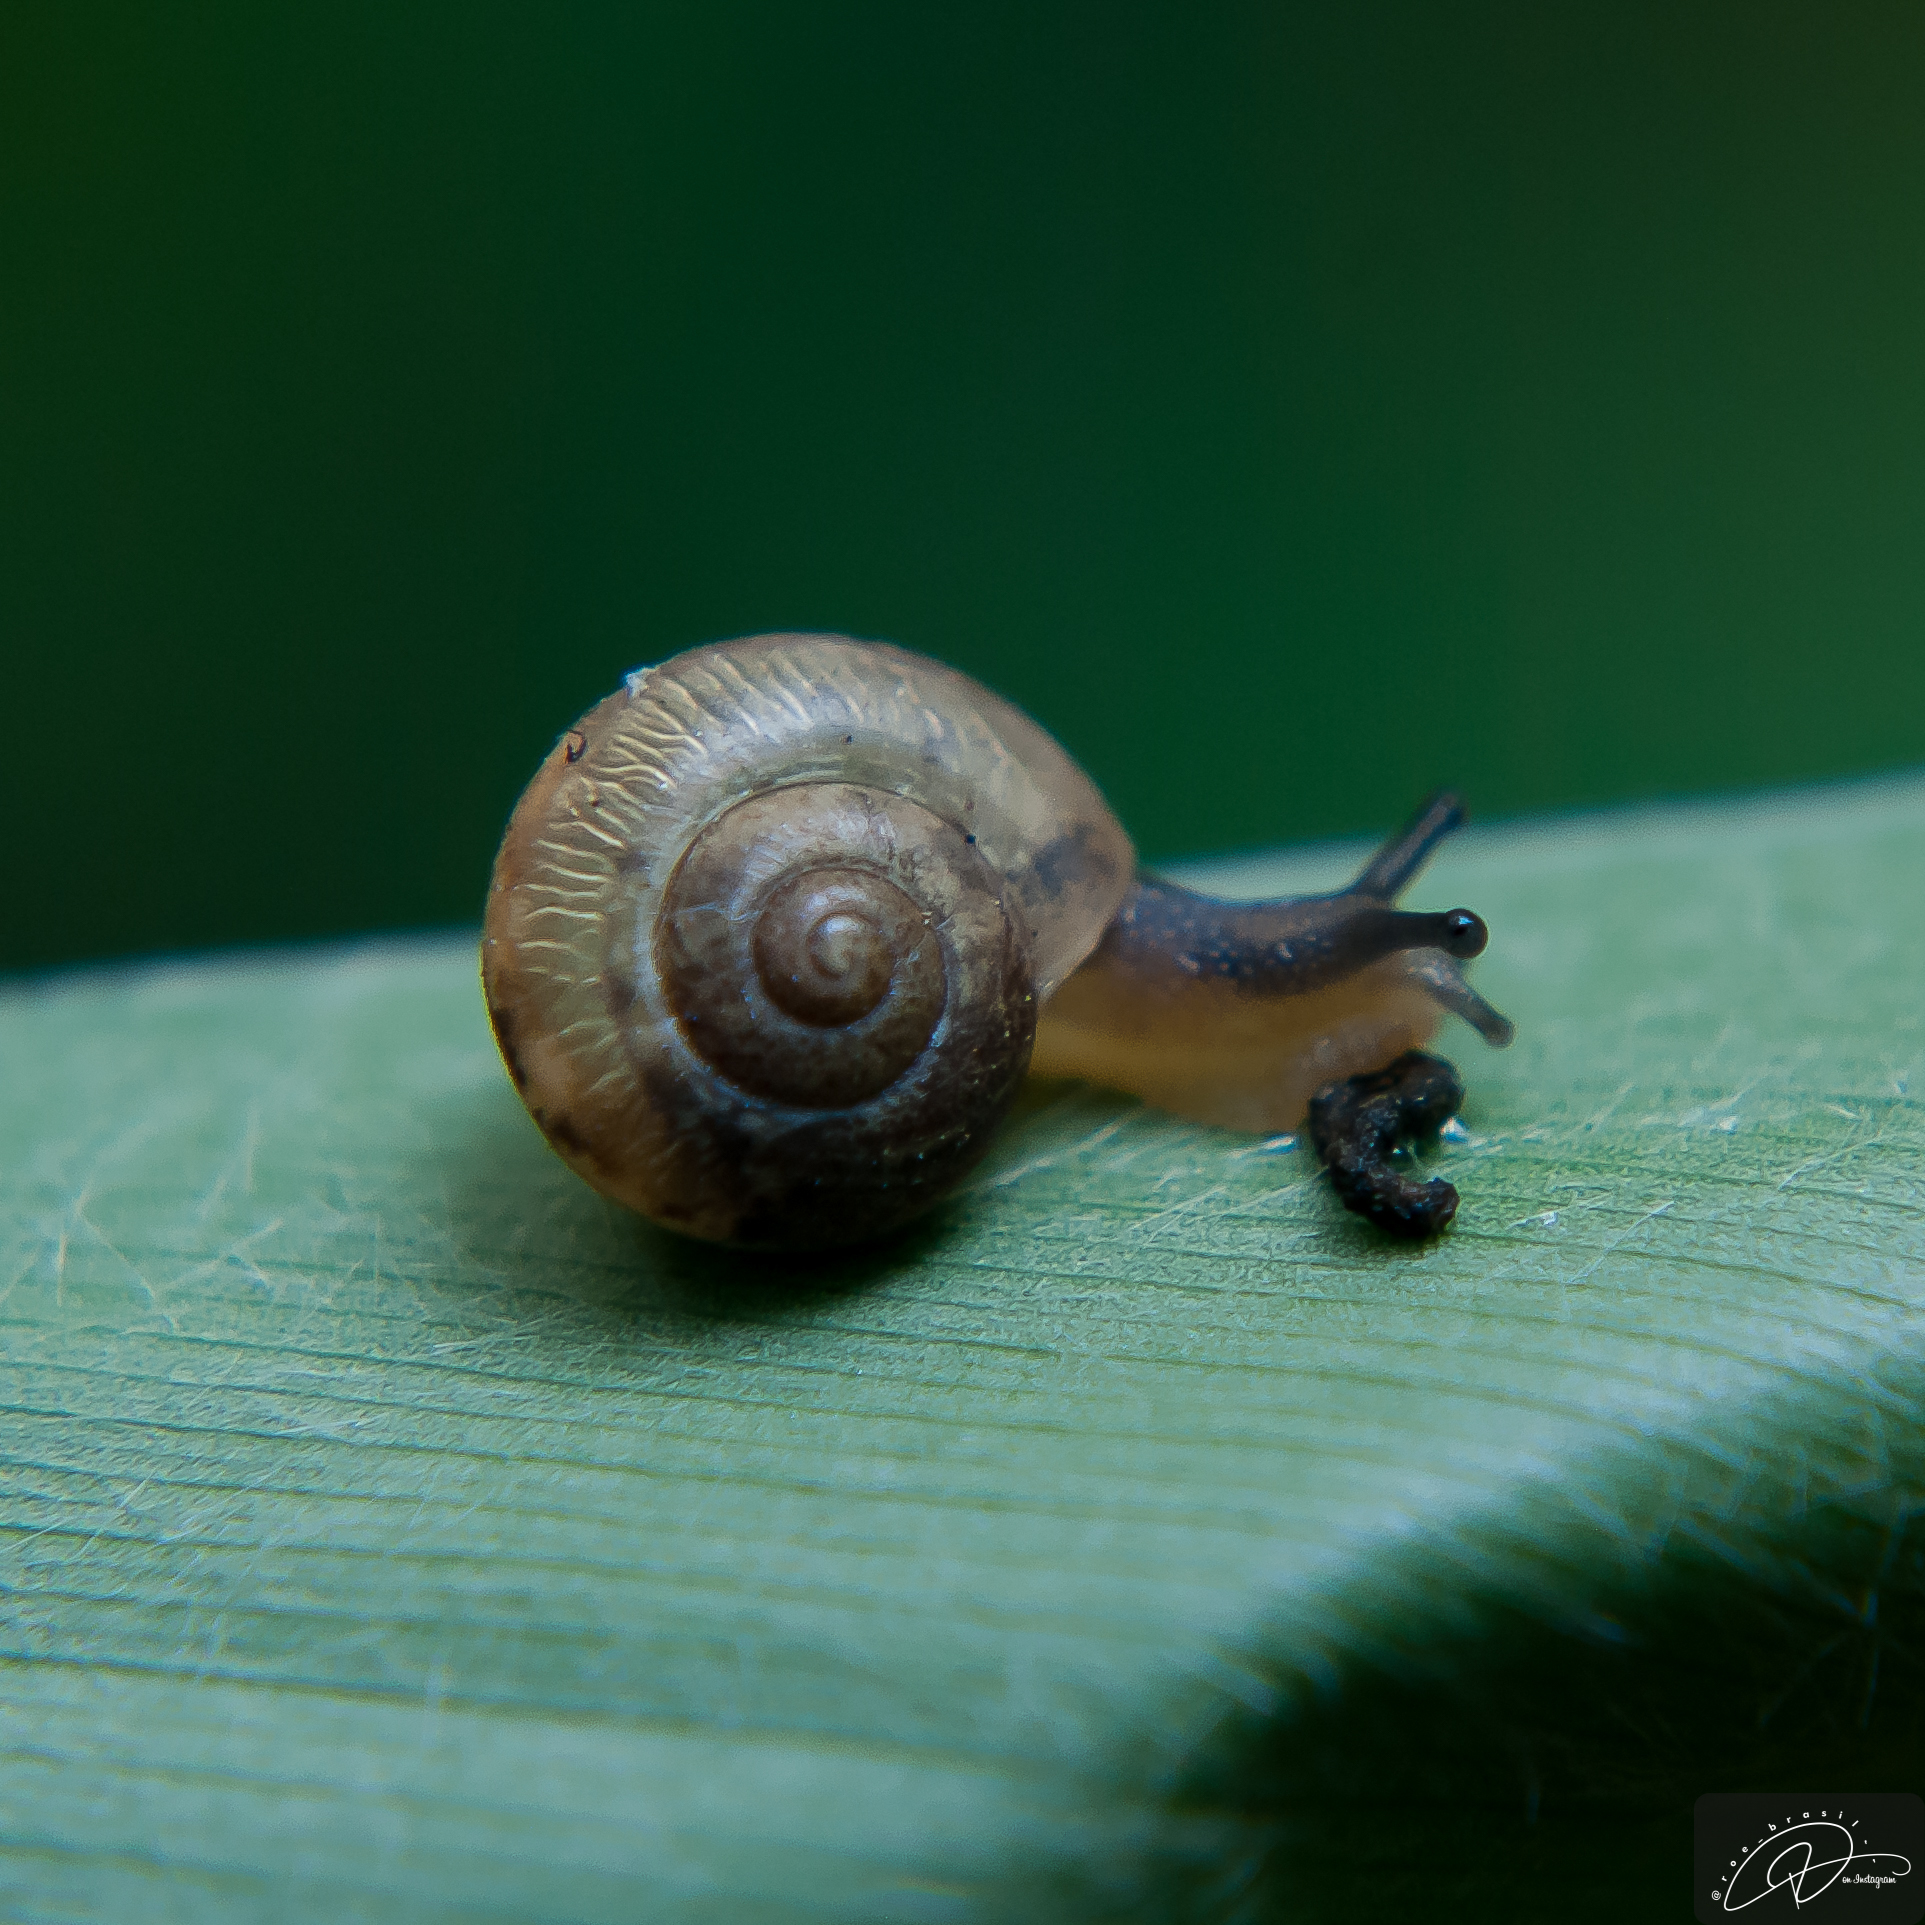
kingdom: Animalia
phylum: Mollusca
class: Gastropoda
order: Stylommatophora
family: Camaenidae
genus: Bradybaena
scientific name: Bradybaena similaris
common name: Asian trampsnail
